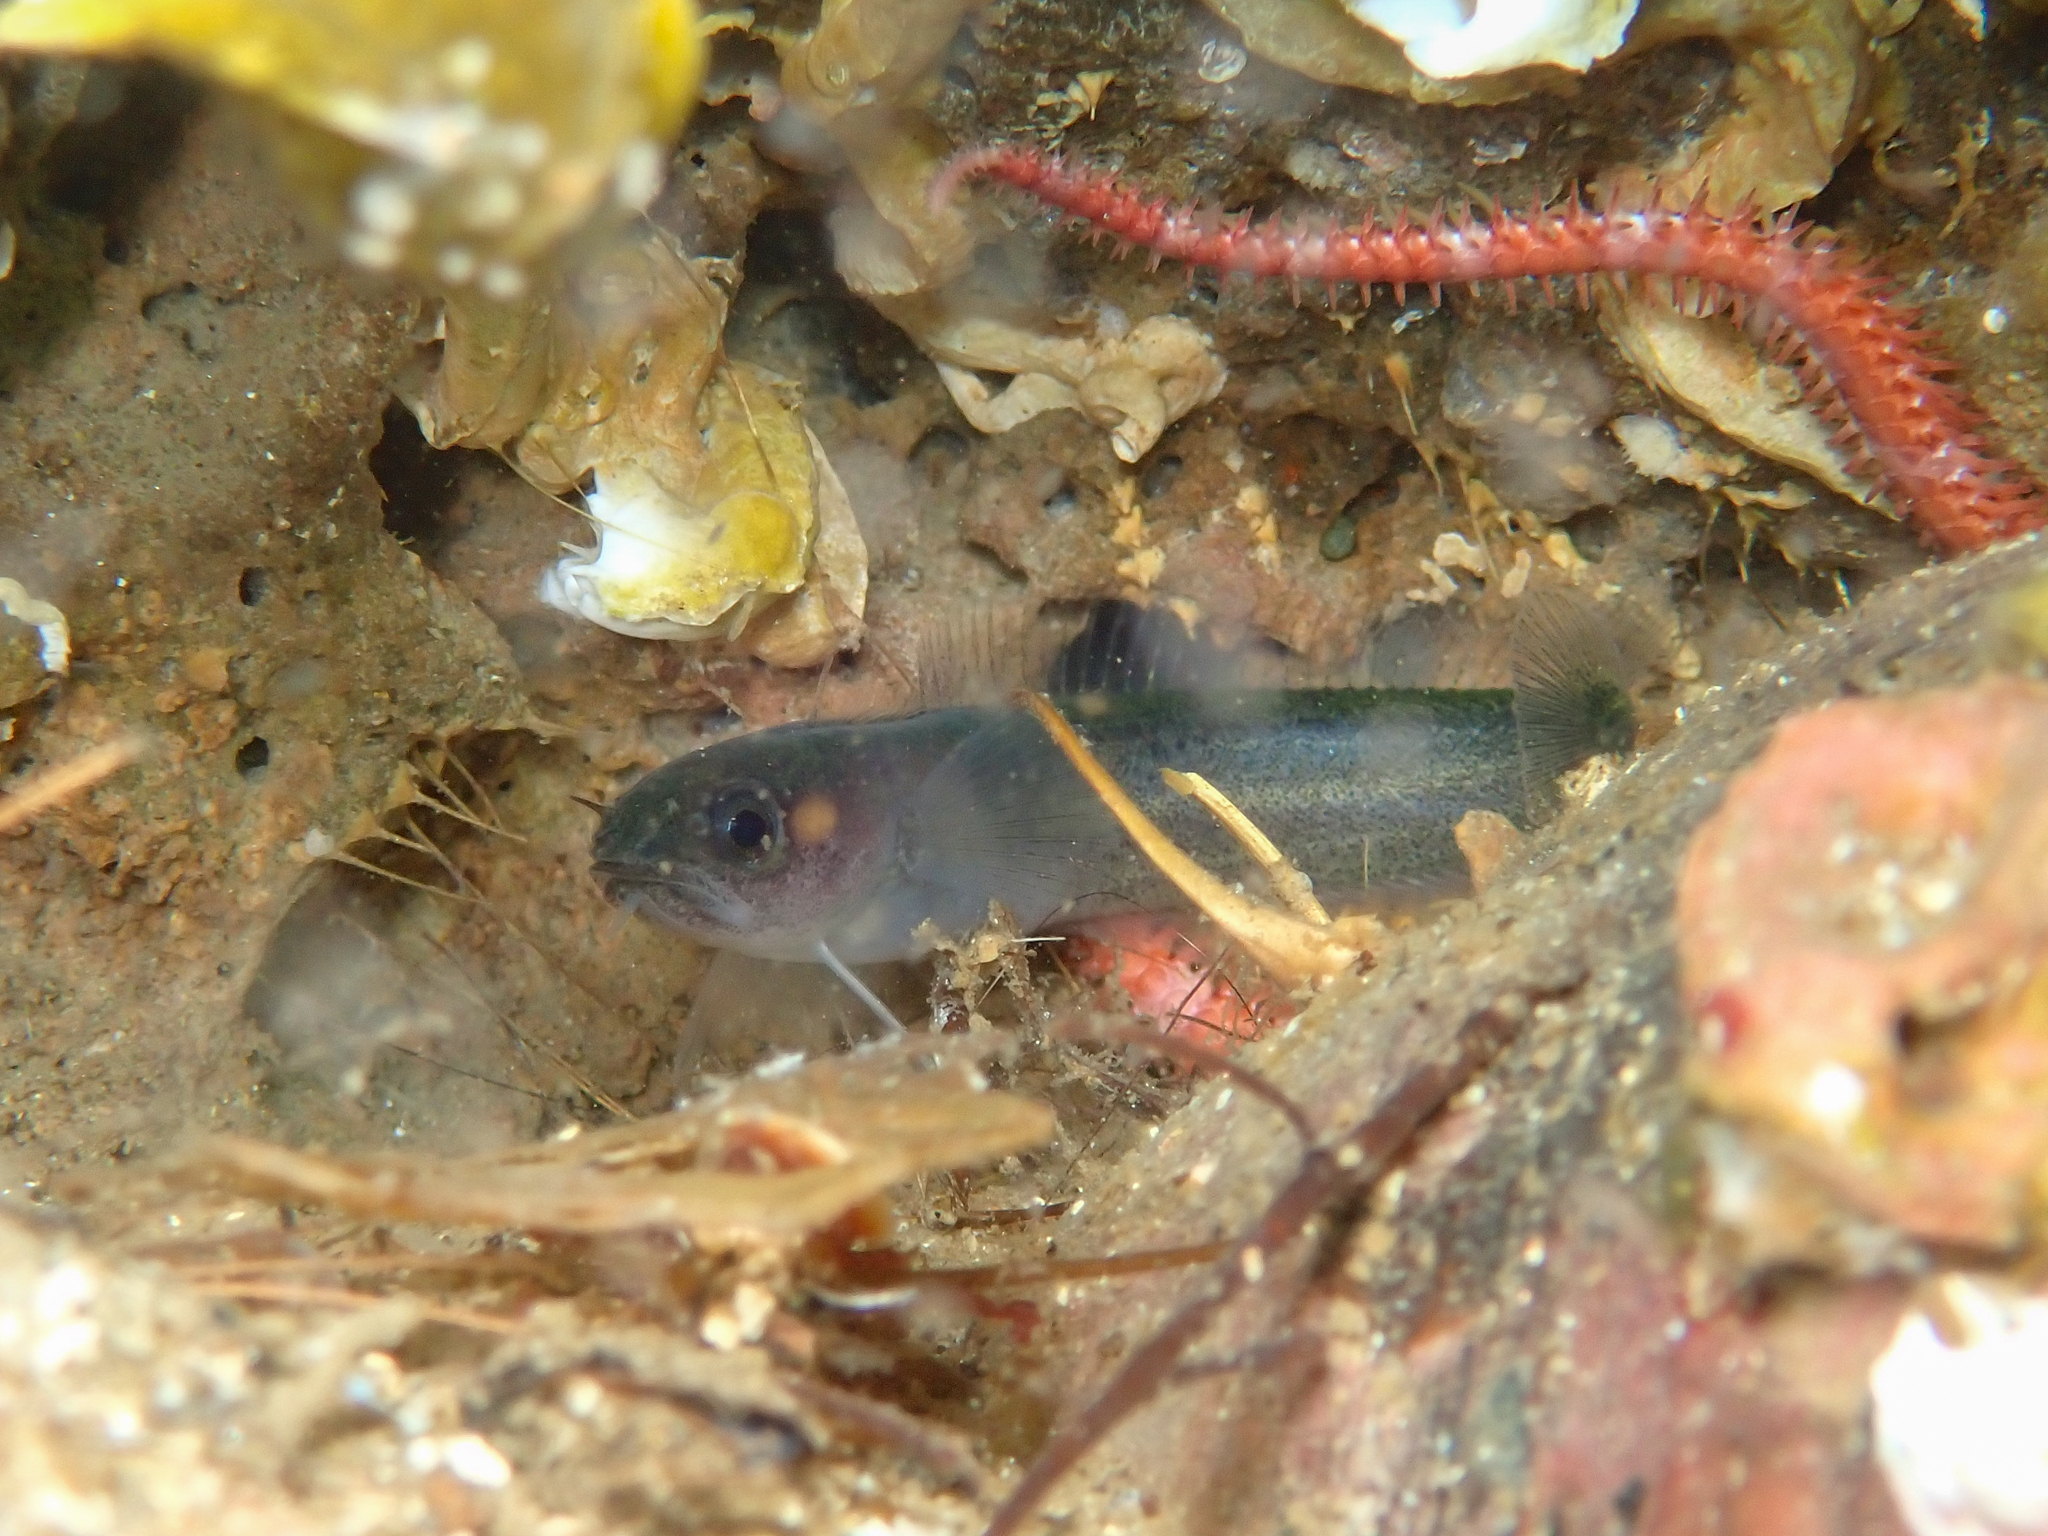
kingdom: Animalia
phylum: Chordata
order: Gadiformes
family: Lotidae
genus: Ciliata
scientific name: Ciliata septentrionalis
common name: Northern rockling
